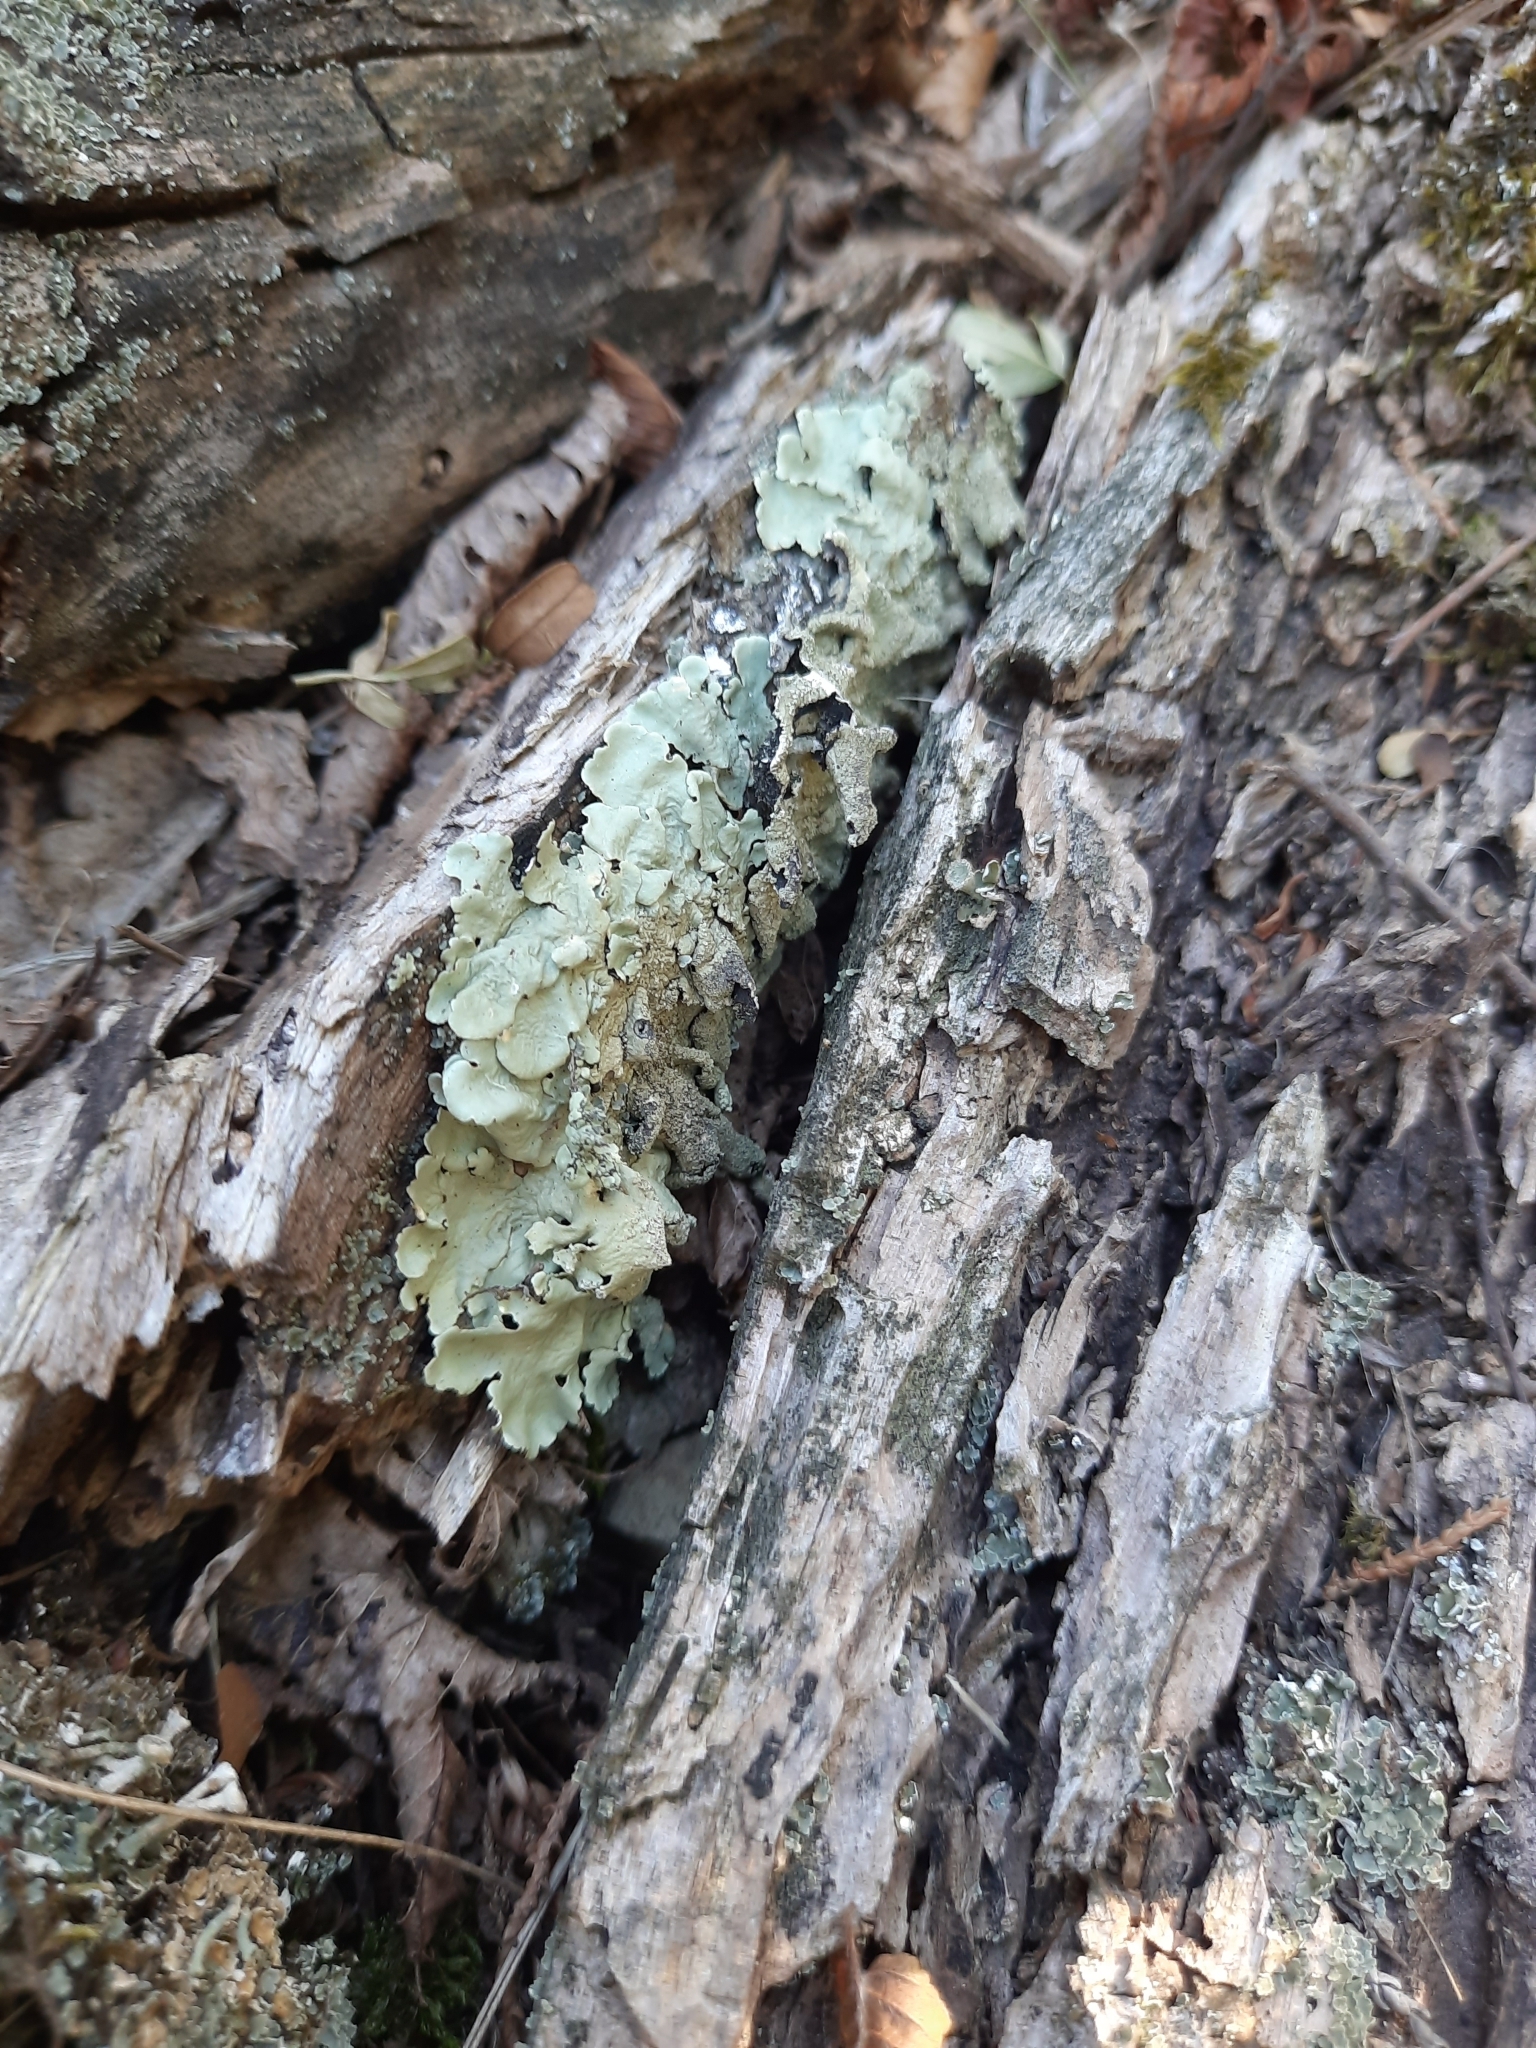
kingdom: Fungi
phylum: Ascomycota
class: Lecanoromycetes
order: Lecanorales
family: Parmeliaceae
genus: Flavoparmelia
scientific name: Flavoparmelia caperata
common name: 40-mile per hour lichen
